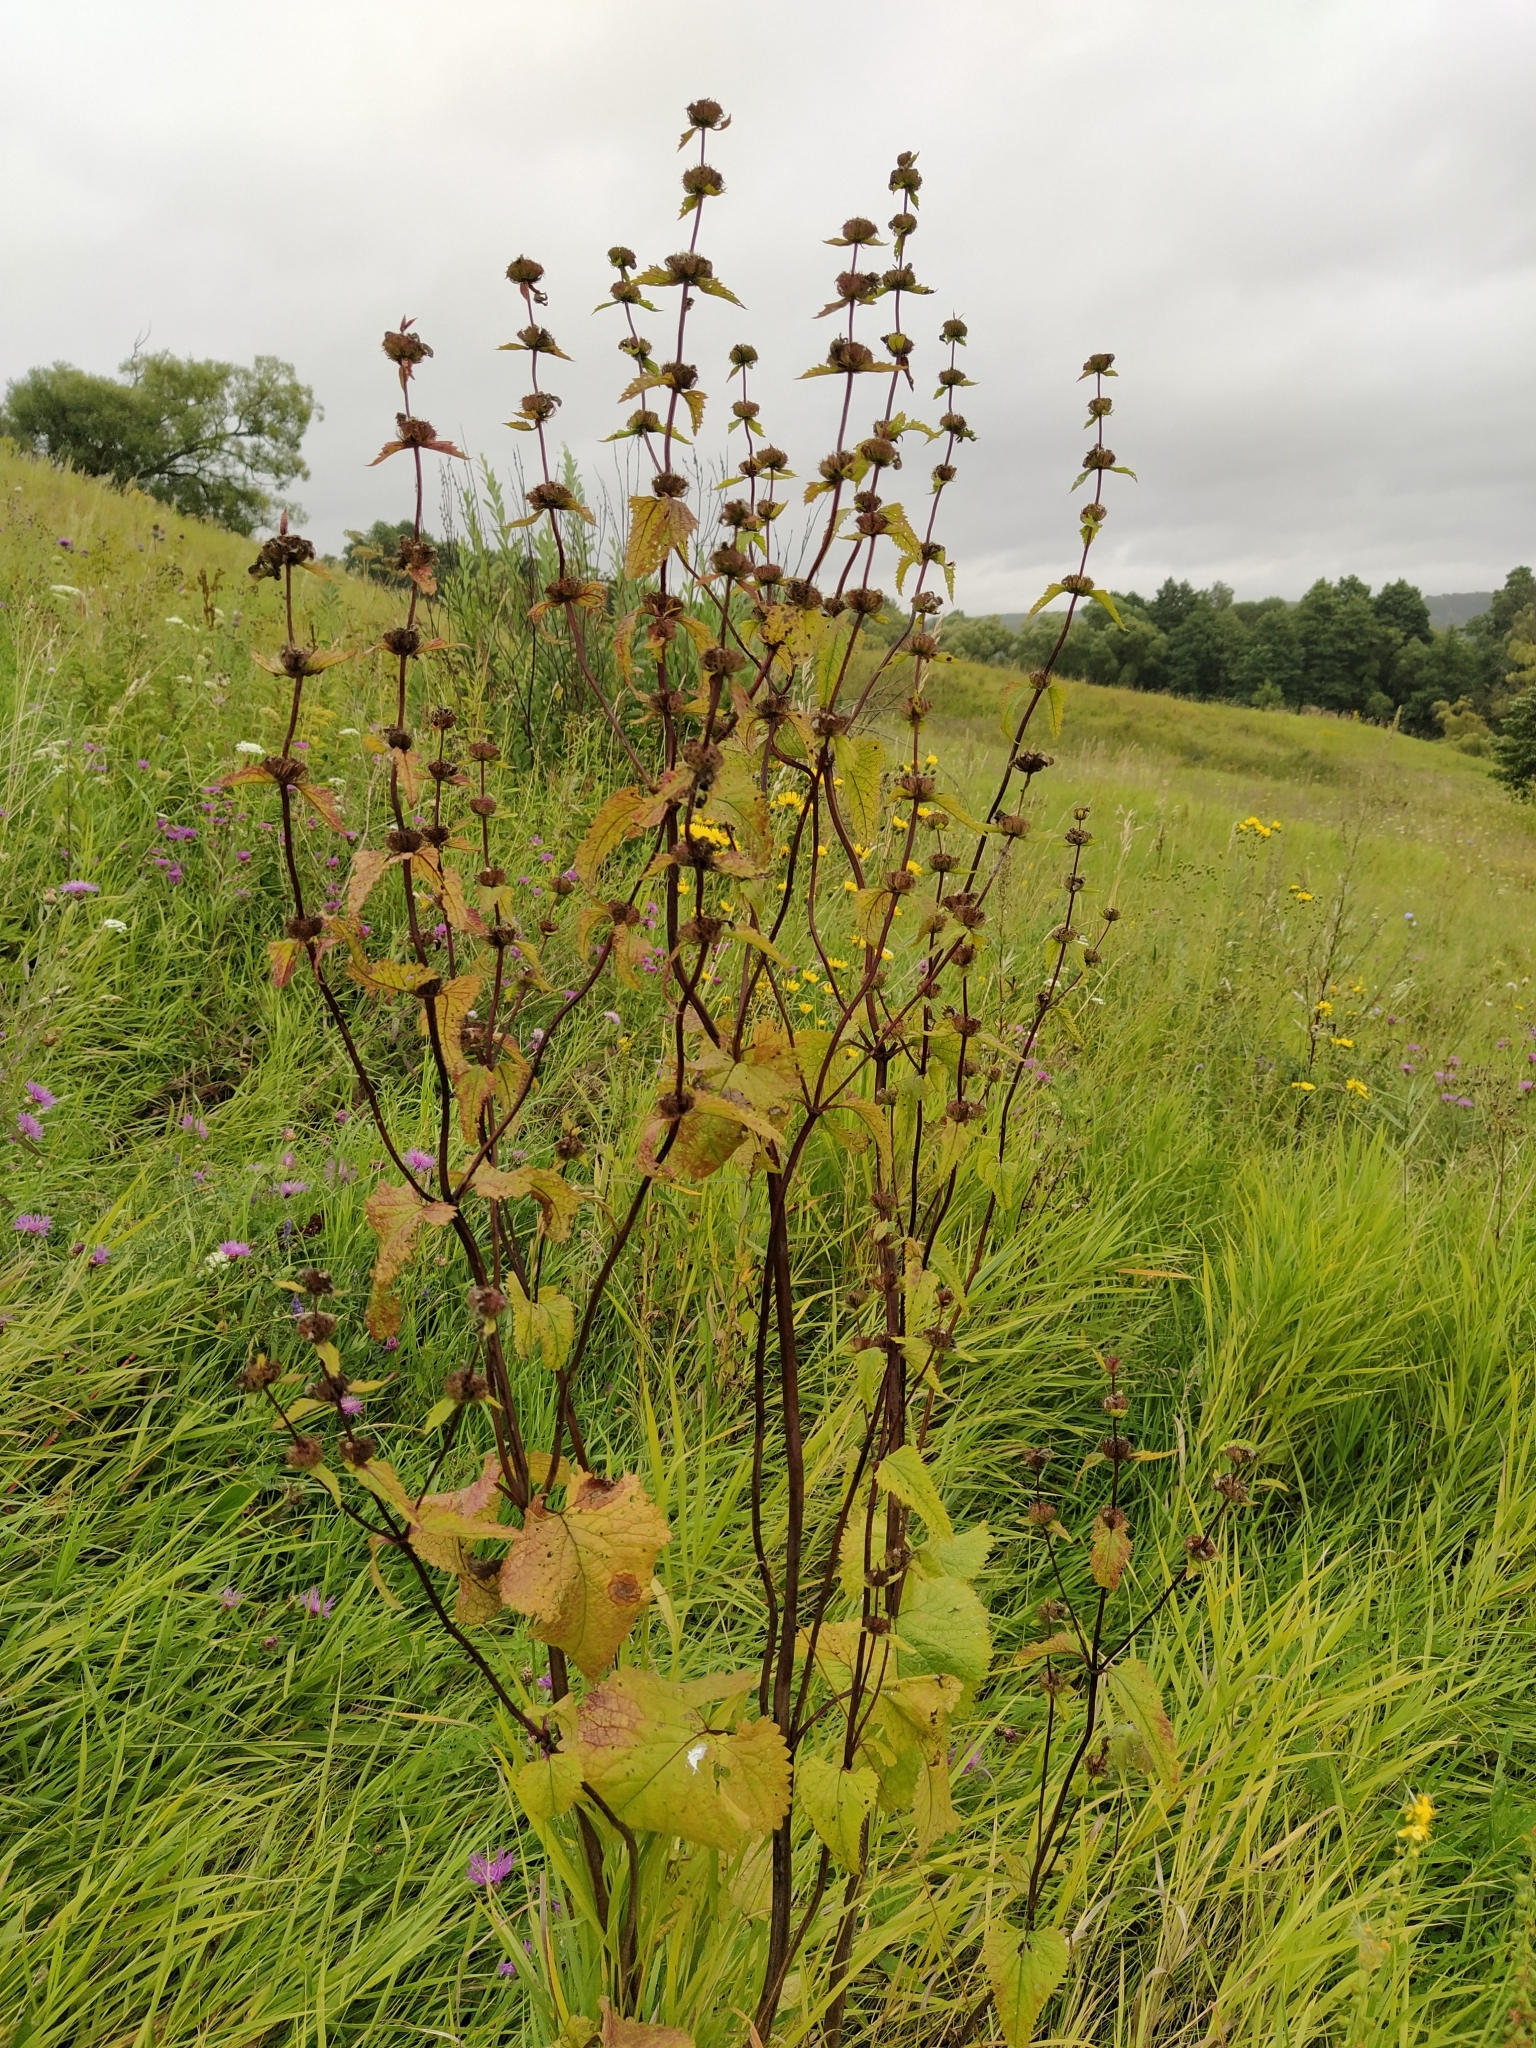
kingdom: Plantae
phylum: Tracheophyta
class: Magnoliopsida
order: Lamiales
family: Lamiaceae
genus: Phlomoides
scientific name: Phlomoides tuberosa
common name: Tuberous jerusalem sage
